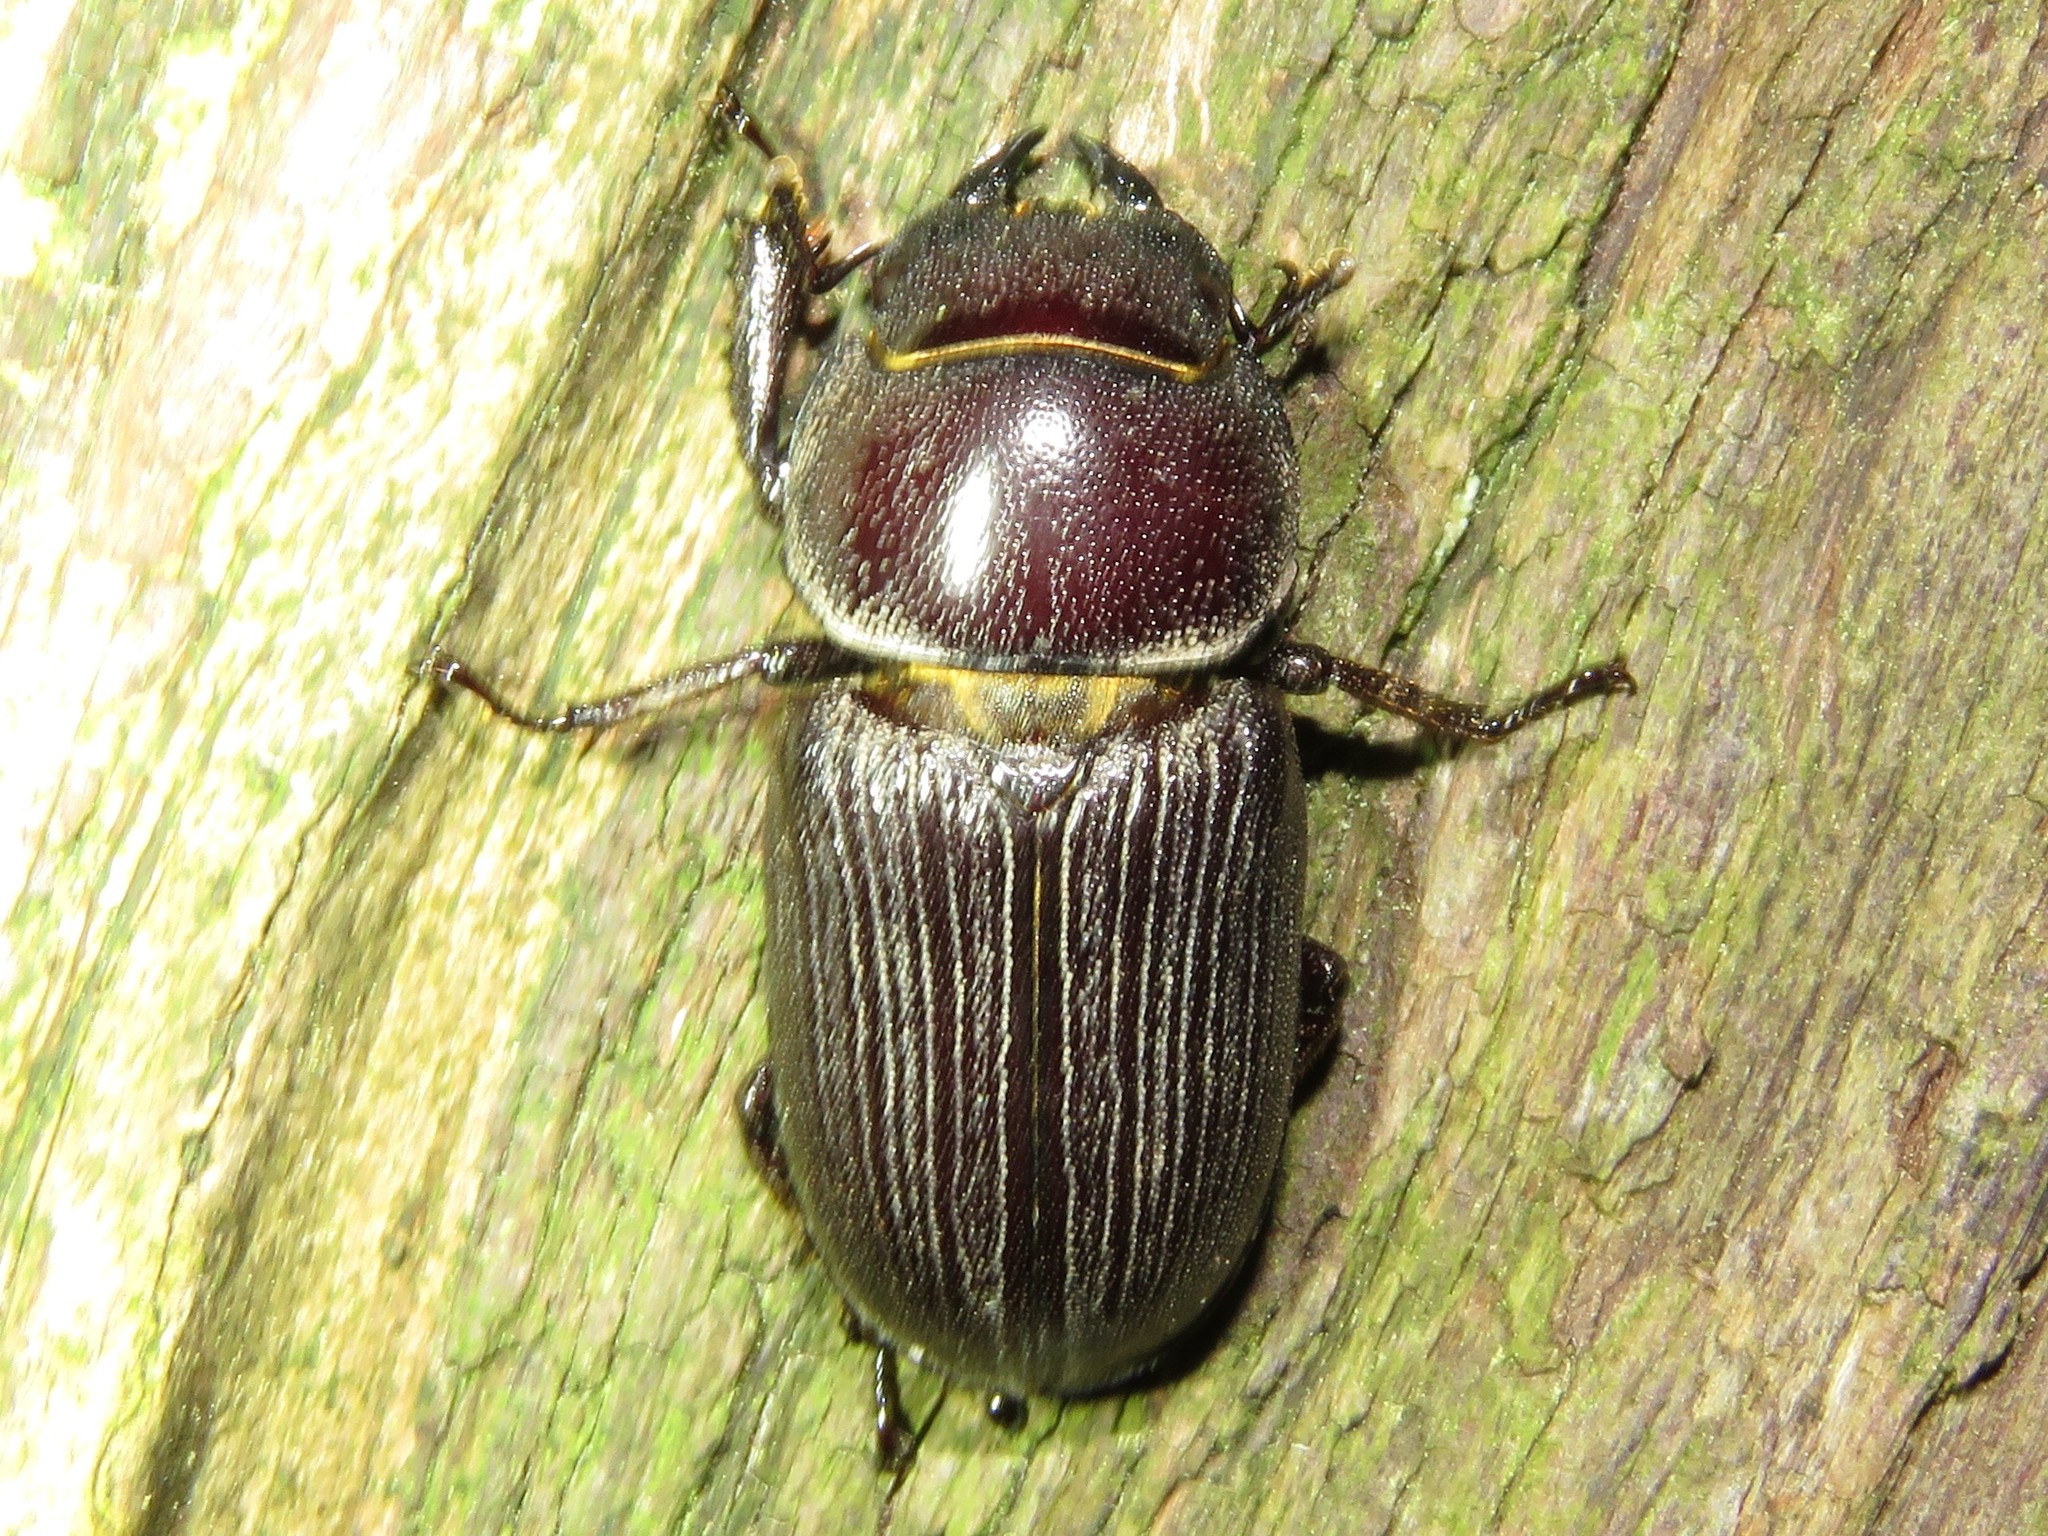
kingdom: Animalia
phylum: Arthropoda
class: Insecta
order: Coleoptera
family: Lucanidae
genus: Dorcus
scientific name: Dorcus parallelus
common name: Antelope beetle
